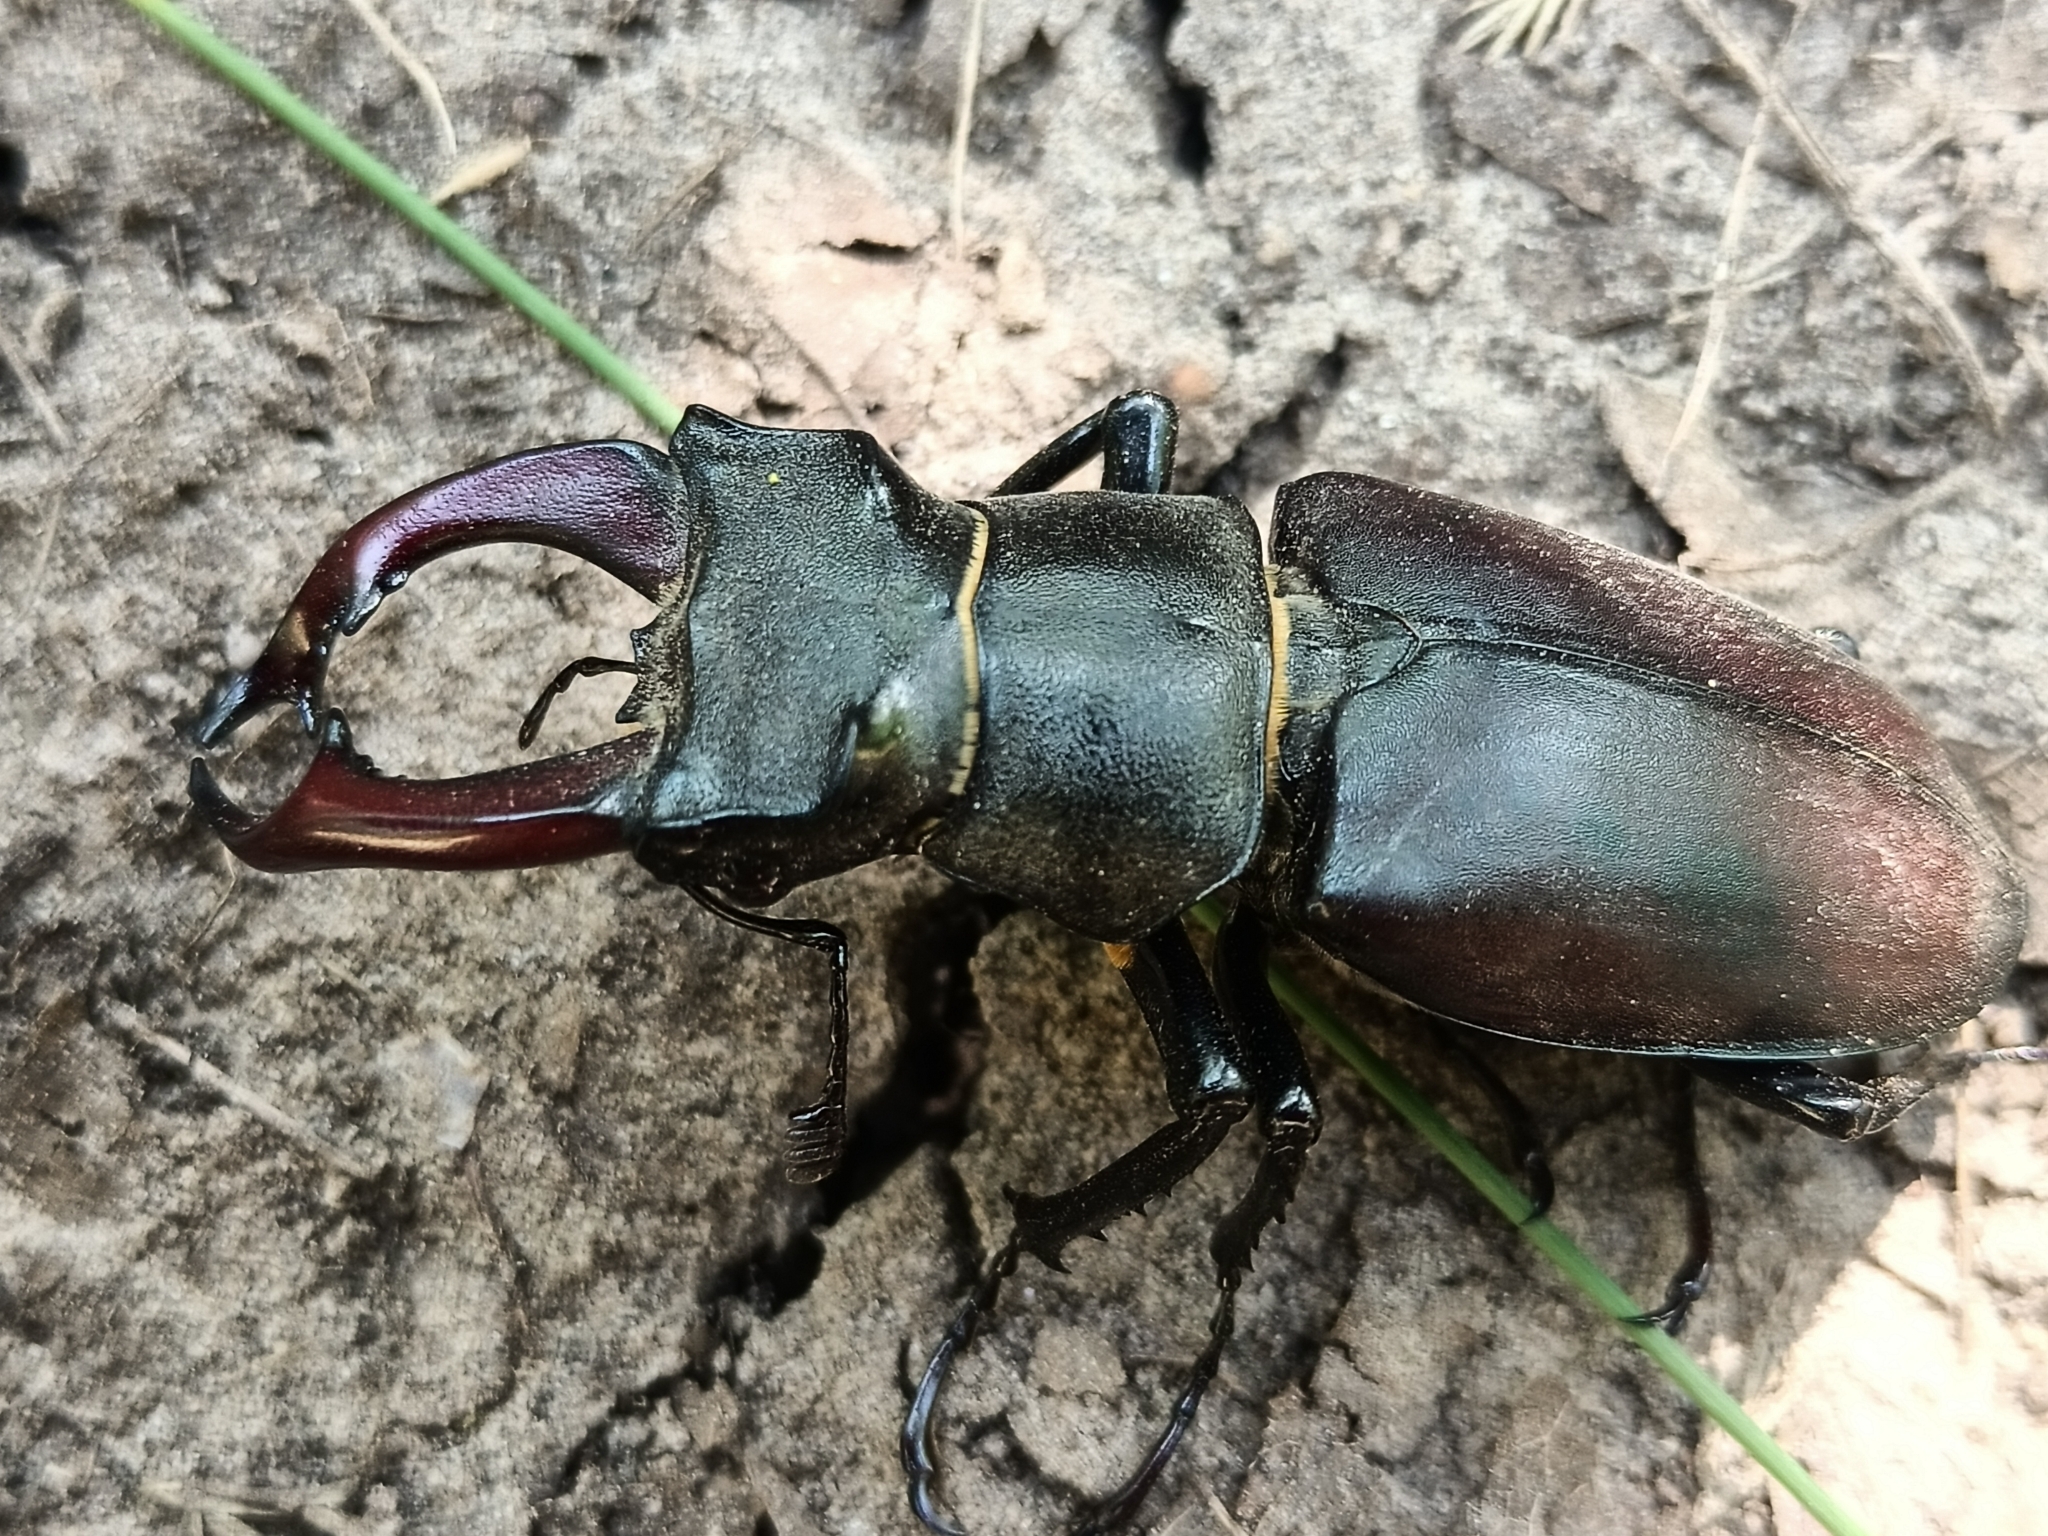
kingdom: Animalia
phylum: Arthropoda
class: Insecta
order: Coleoptera
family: Lucanidae
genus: Lucanus
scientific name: Lucanus cervus
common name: Stag beetle
